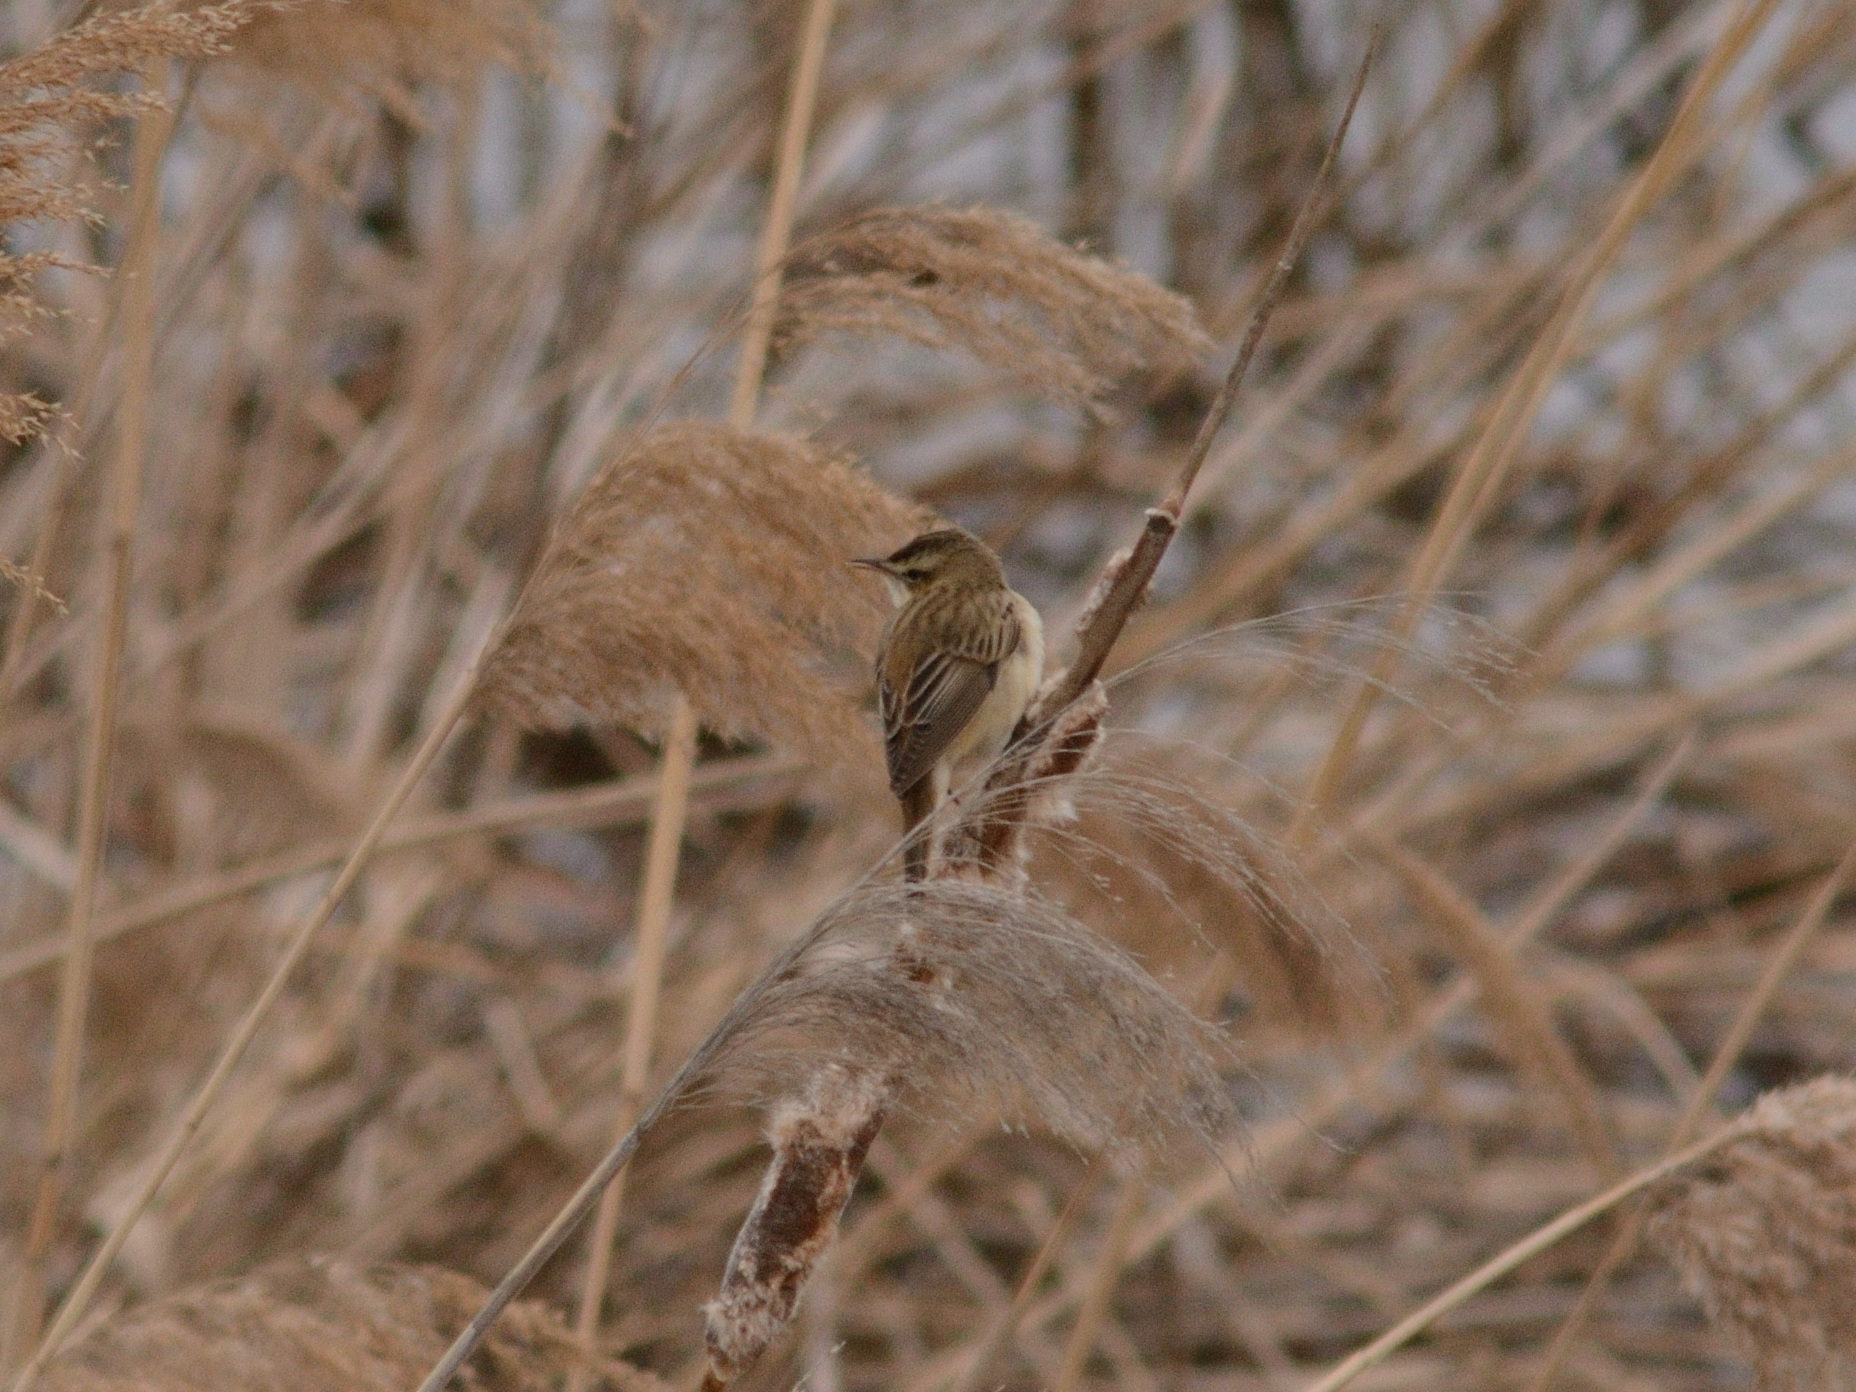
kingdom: Animalia
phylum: Chordata
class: Aves
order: Passeriformes
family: Acrocephalidae
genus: Acrocephalus
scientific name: Acrocephalus schoenobaenus
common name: Sedge warbler
